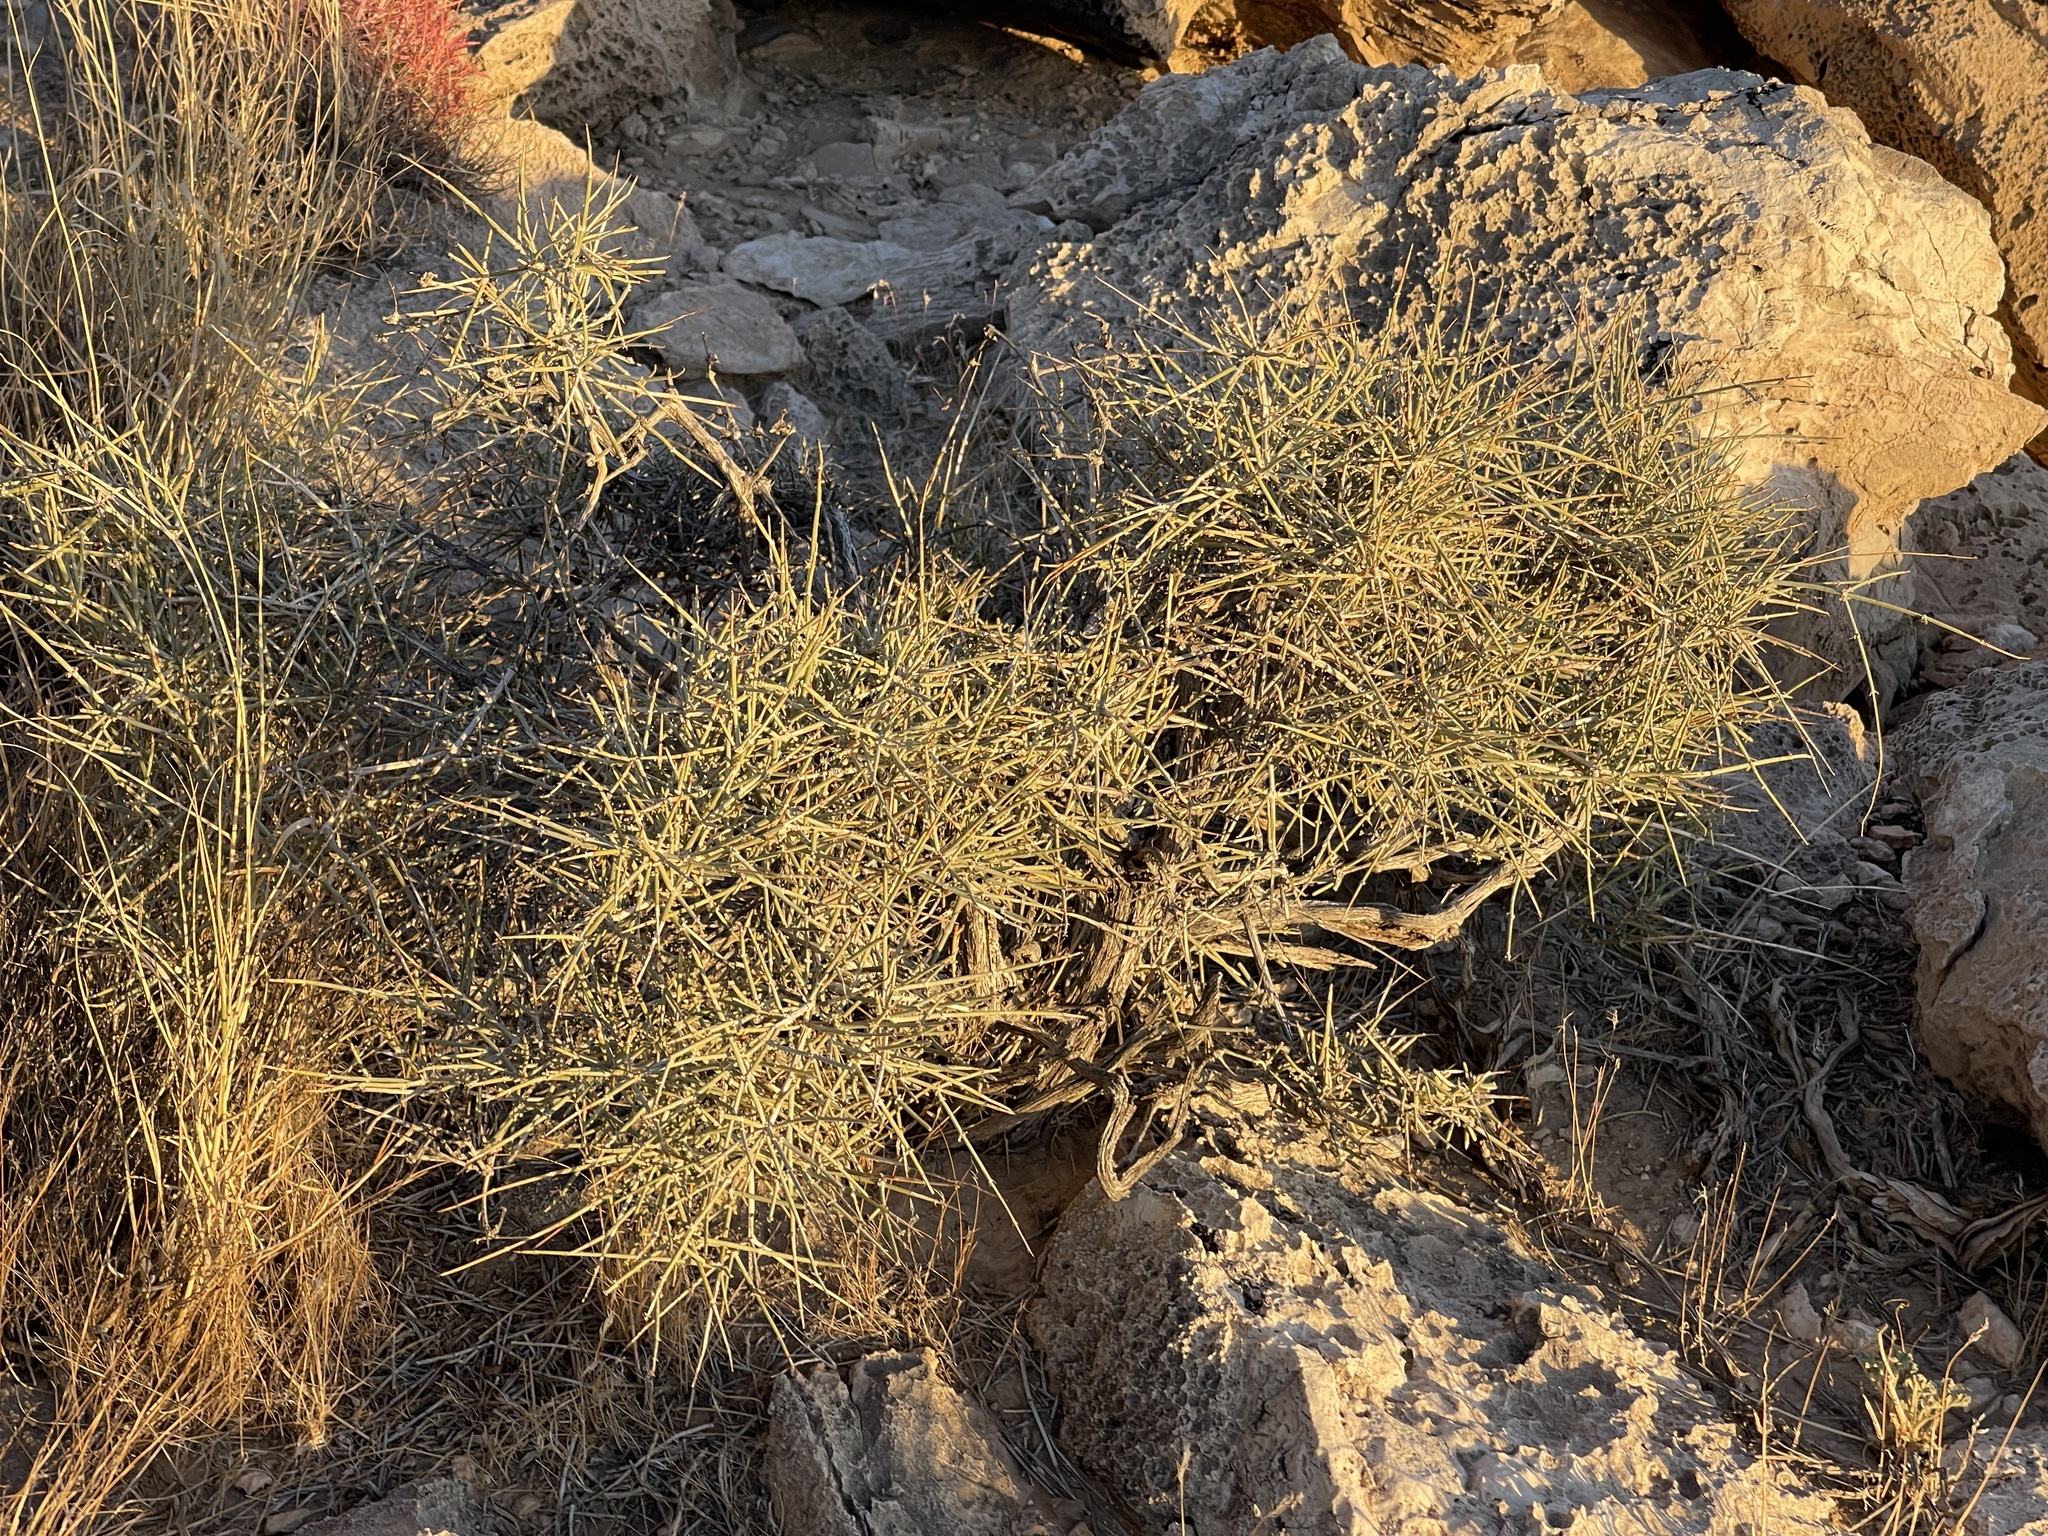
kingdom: Plantae
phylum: Tracheophyta
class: Gnetopsida
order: Ephedrales
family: Ephedraceae
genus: Ephedra
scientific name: Ephedra nevadensis
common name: Gray ephedra
